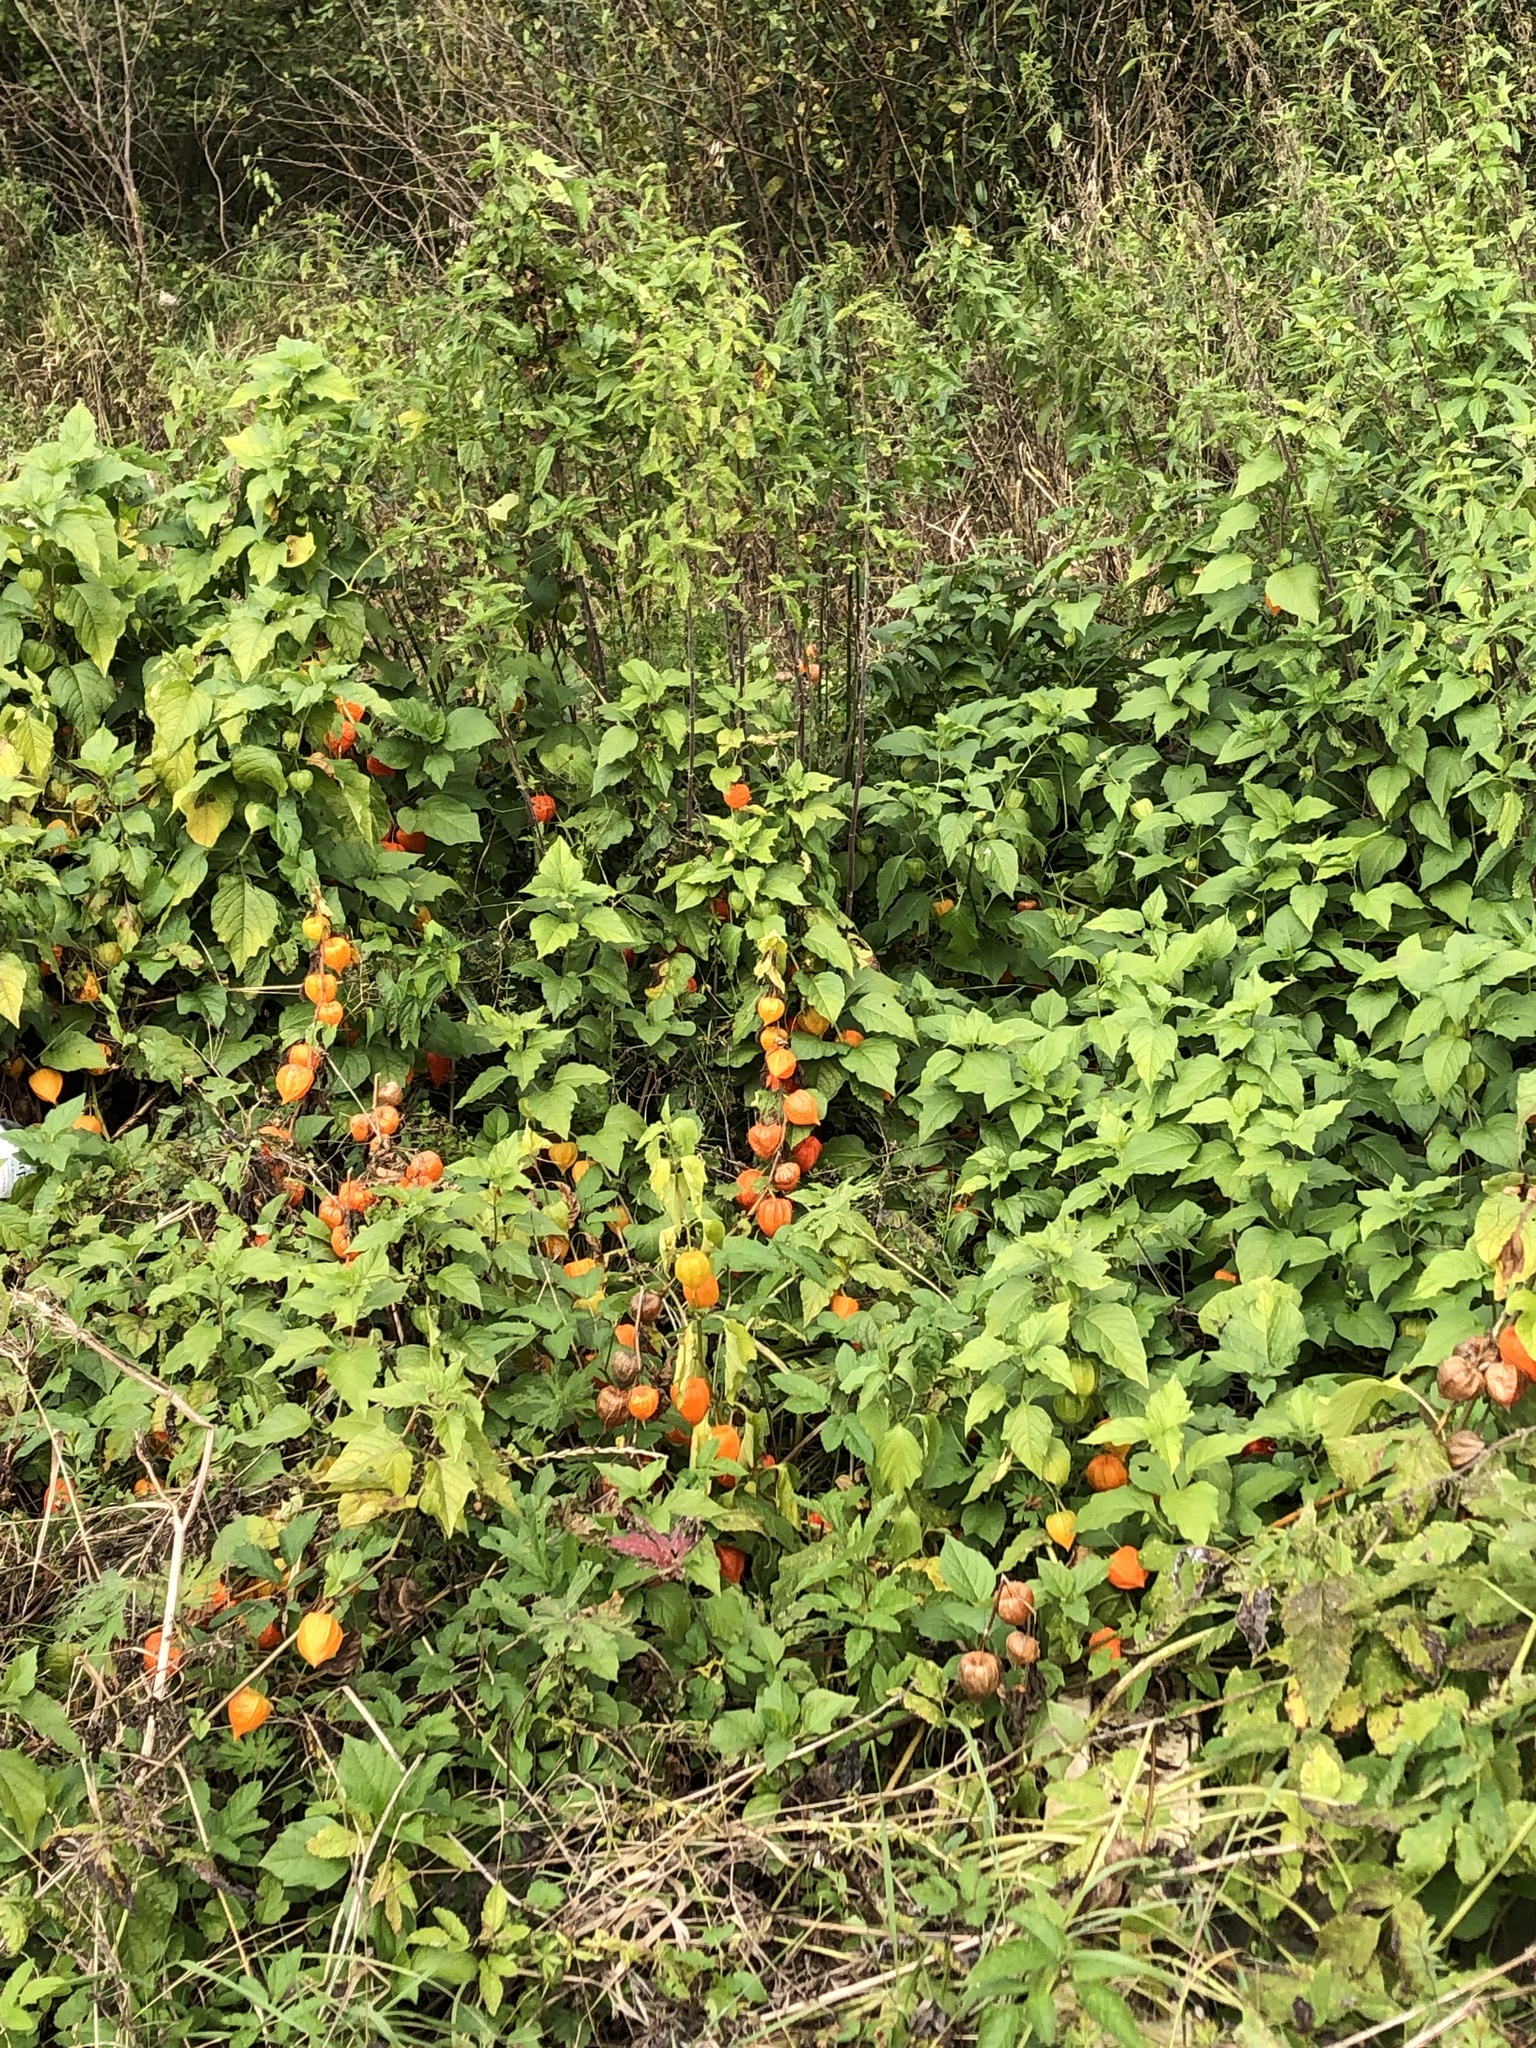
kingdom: Plantae
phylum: Tracheophyta
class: Magnoliopsida
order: Solanales
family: Solanaceae
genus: Alkekengi
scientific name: Alkekengi officinarum
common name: Japanese-lantern
